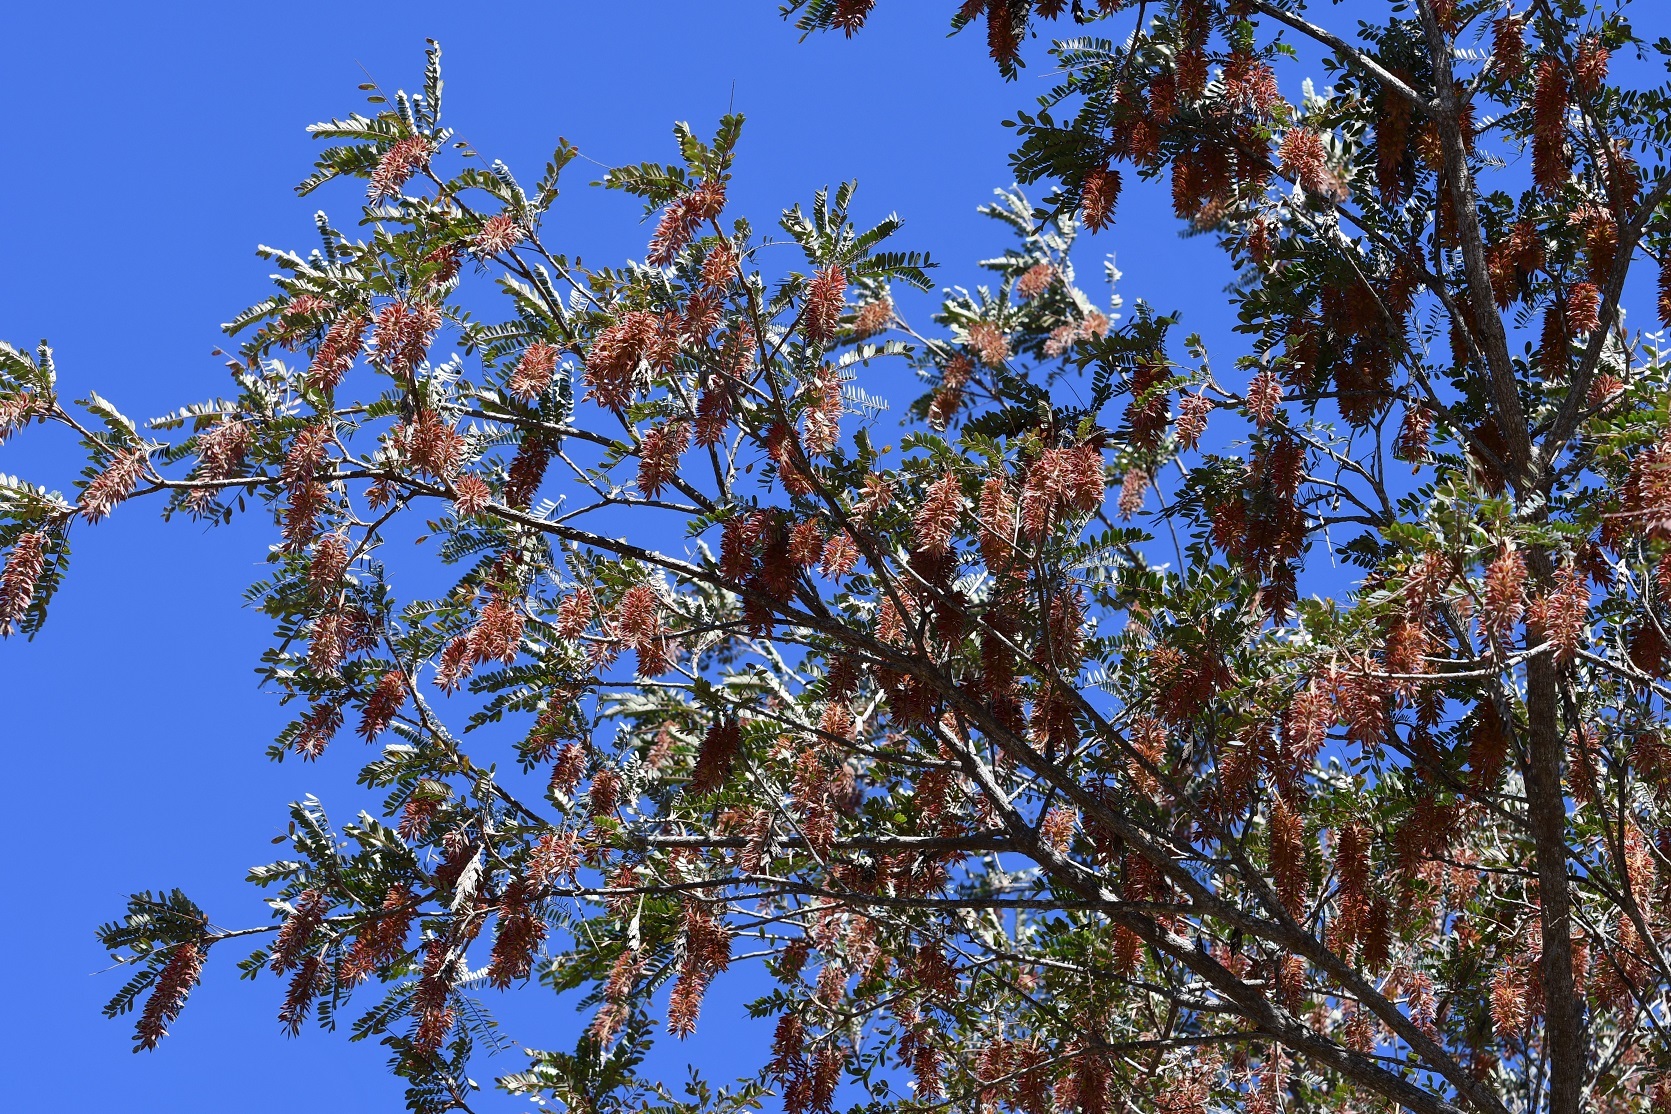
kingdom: Plantae
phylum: Tracheophyta
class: Magnoliopsida
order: Picramniales
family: Picramniaceae
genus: Alvaradoa
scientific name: Alvaradoa amorphoides
